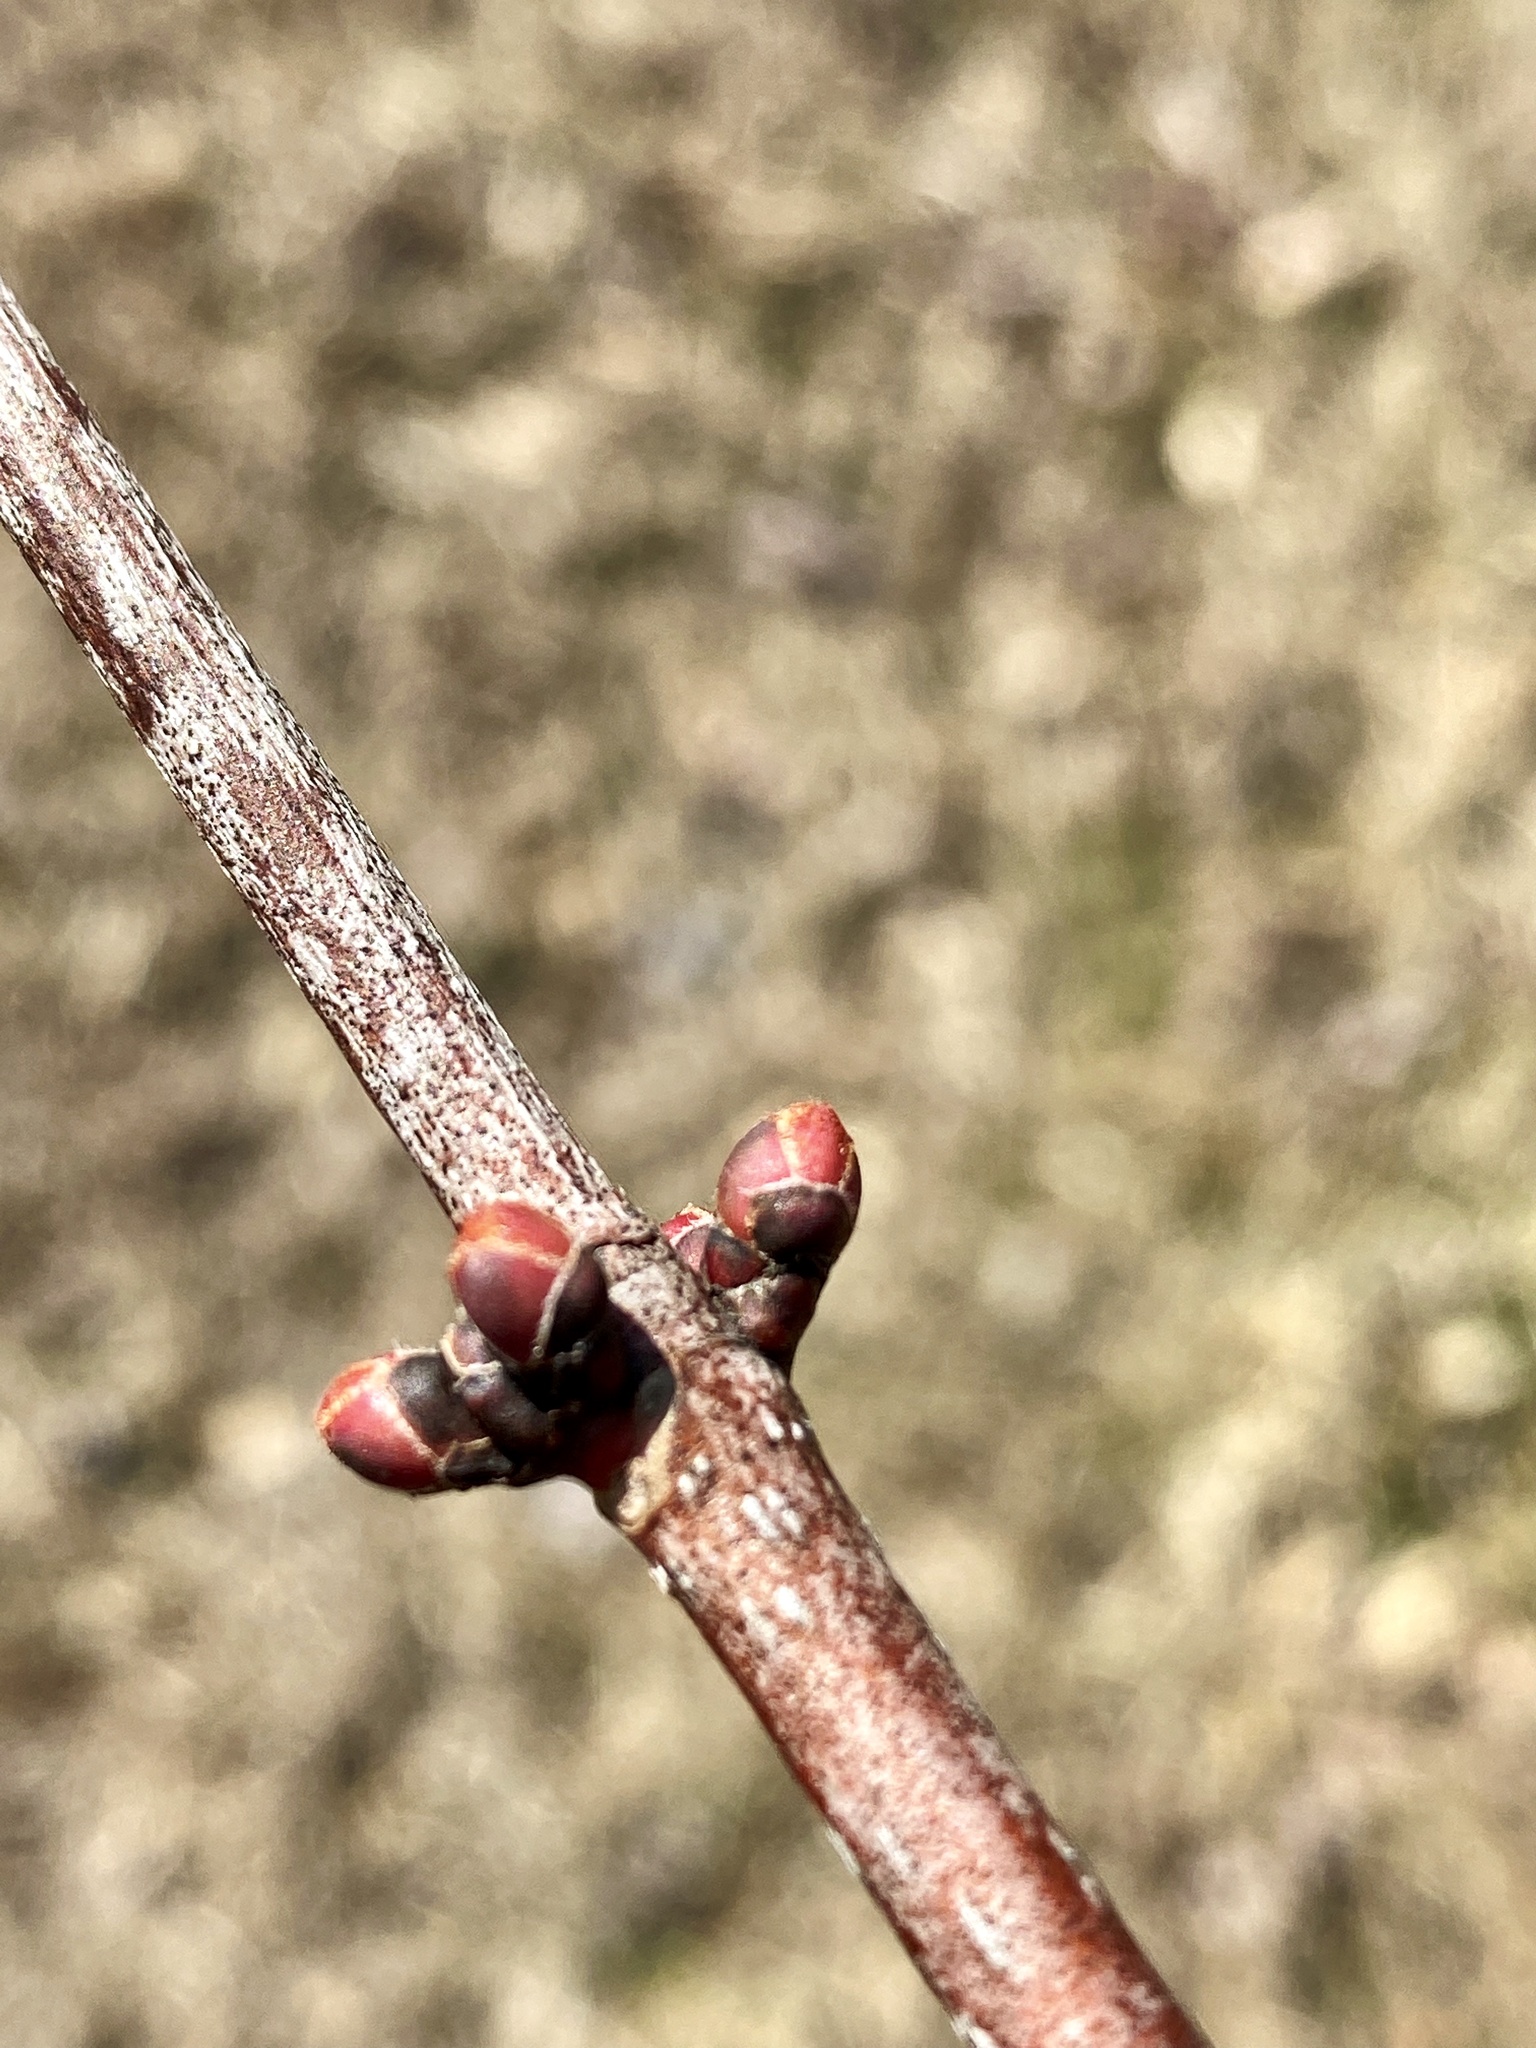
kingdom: Plantae
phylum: Tracheophyta
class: Magnoliopsida
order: Sapindales
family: Sapindaceae
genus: Acer
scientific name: Acer rubrum
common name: Red maple
